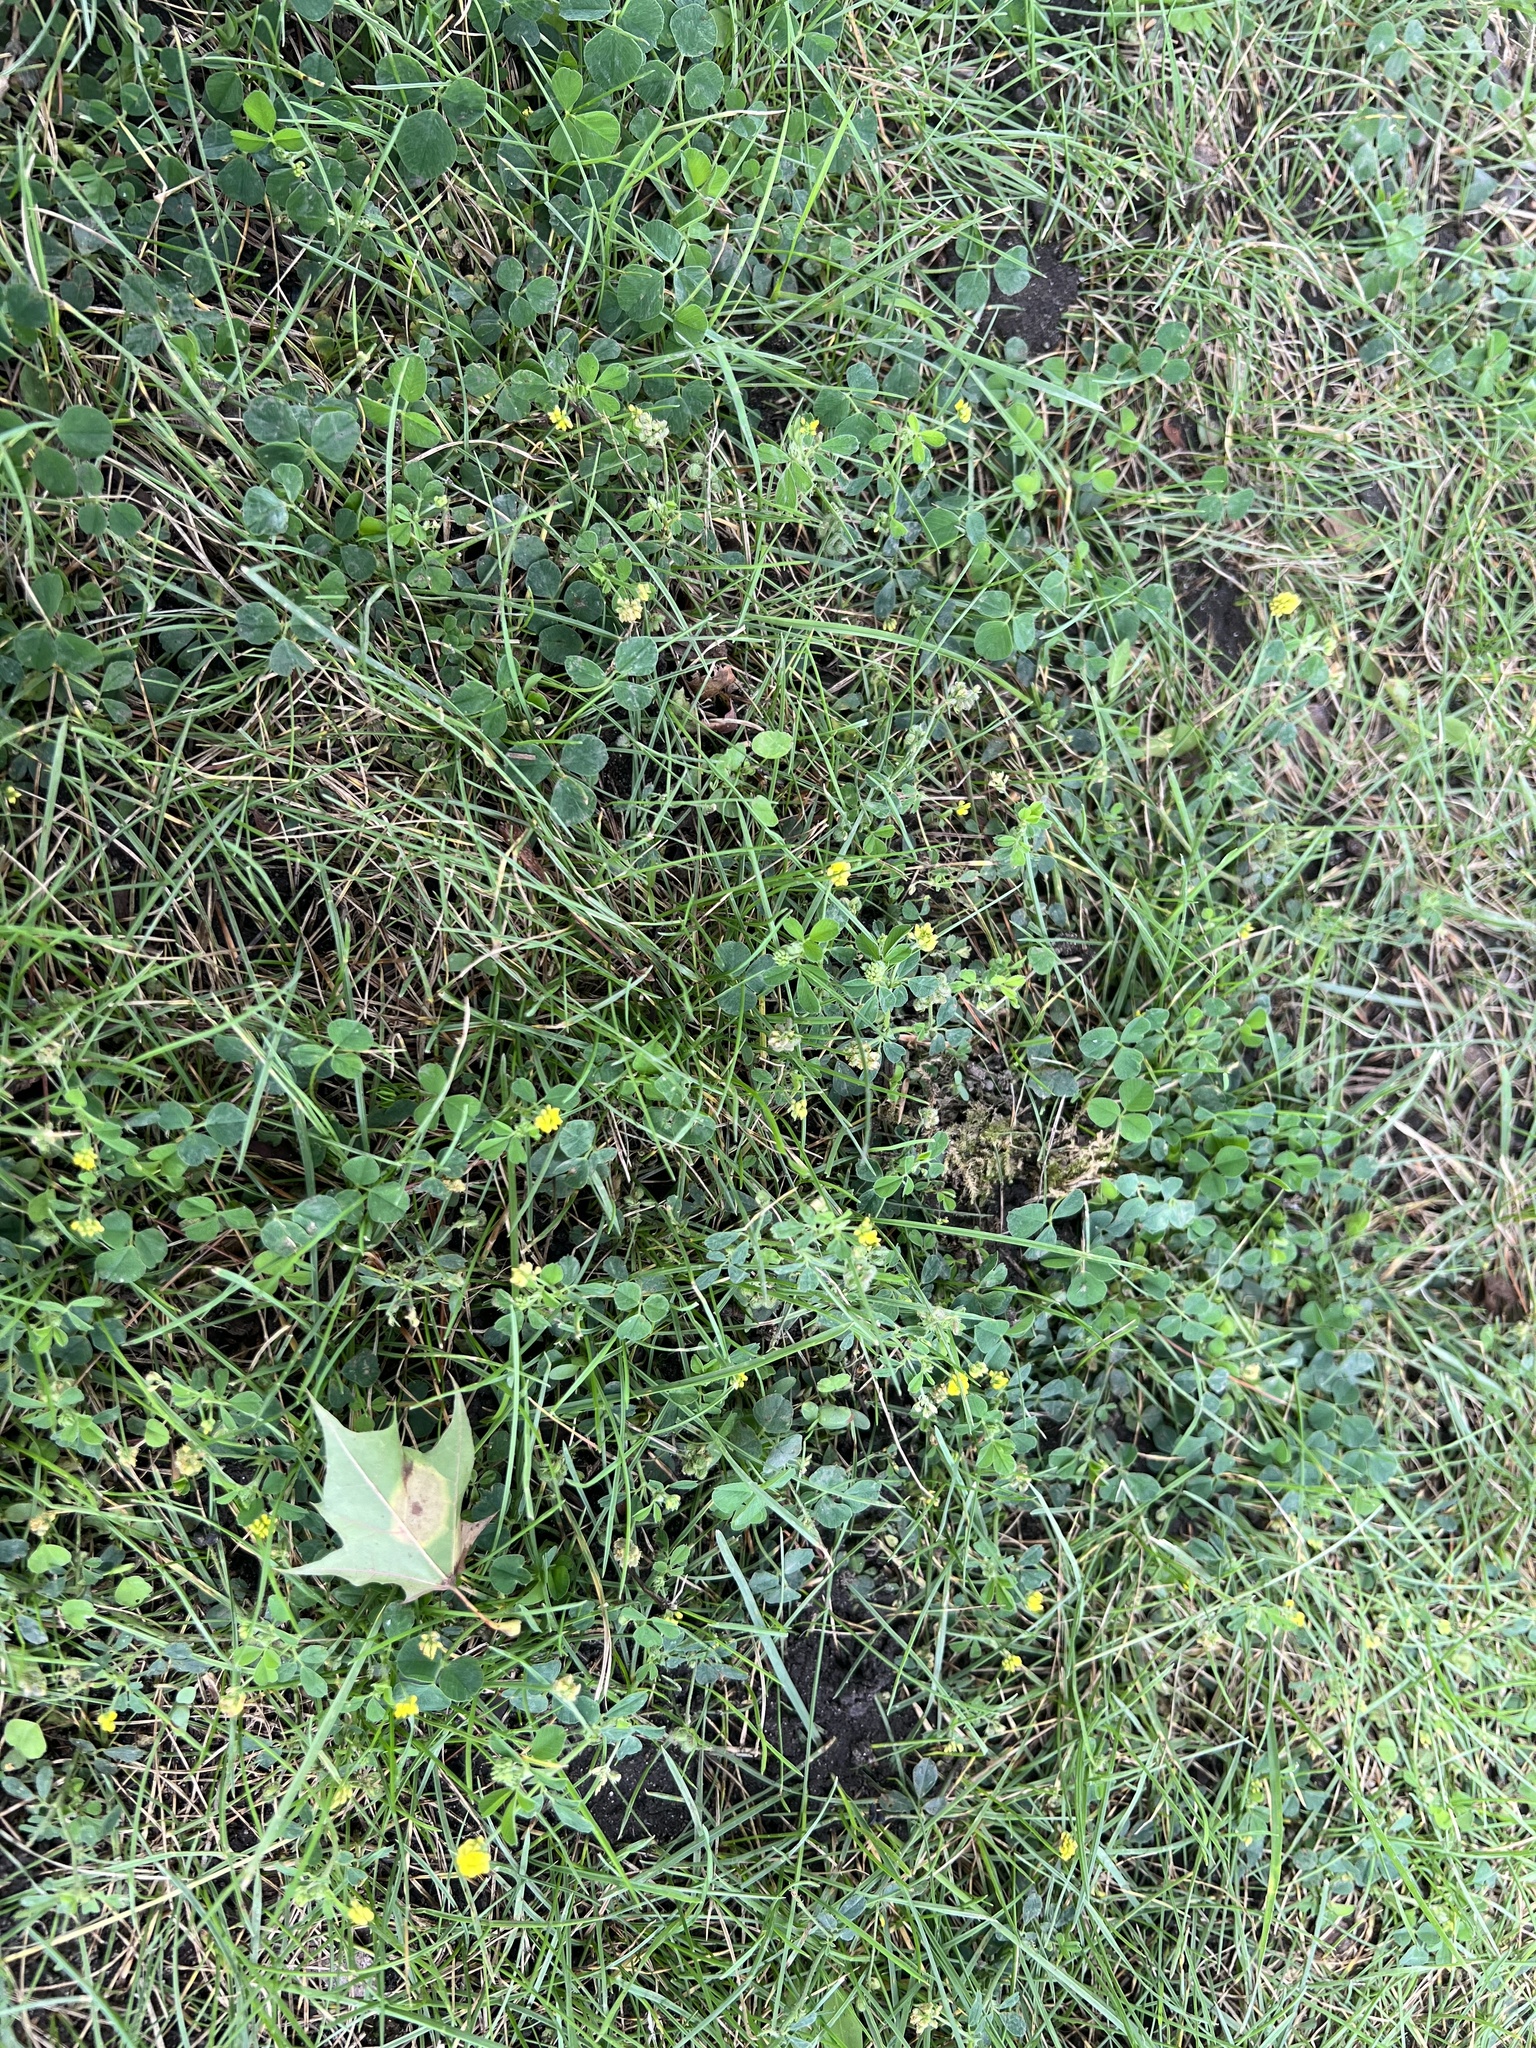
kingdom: Plantae
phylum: Tracheophyta
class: Magnoliopsida
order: Fabales
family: Fabaceae
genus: Medicago
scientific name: Medicago lupulina
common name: Black medick
